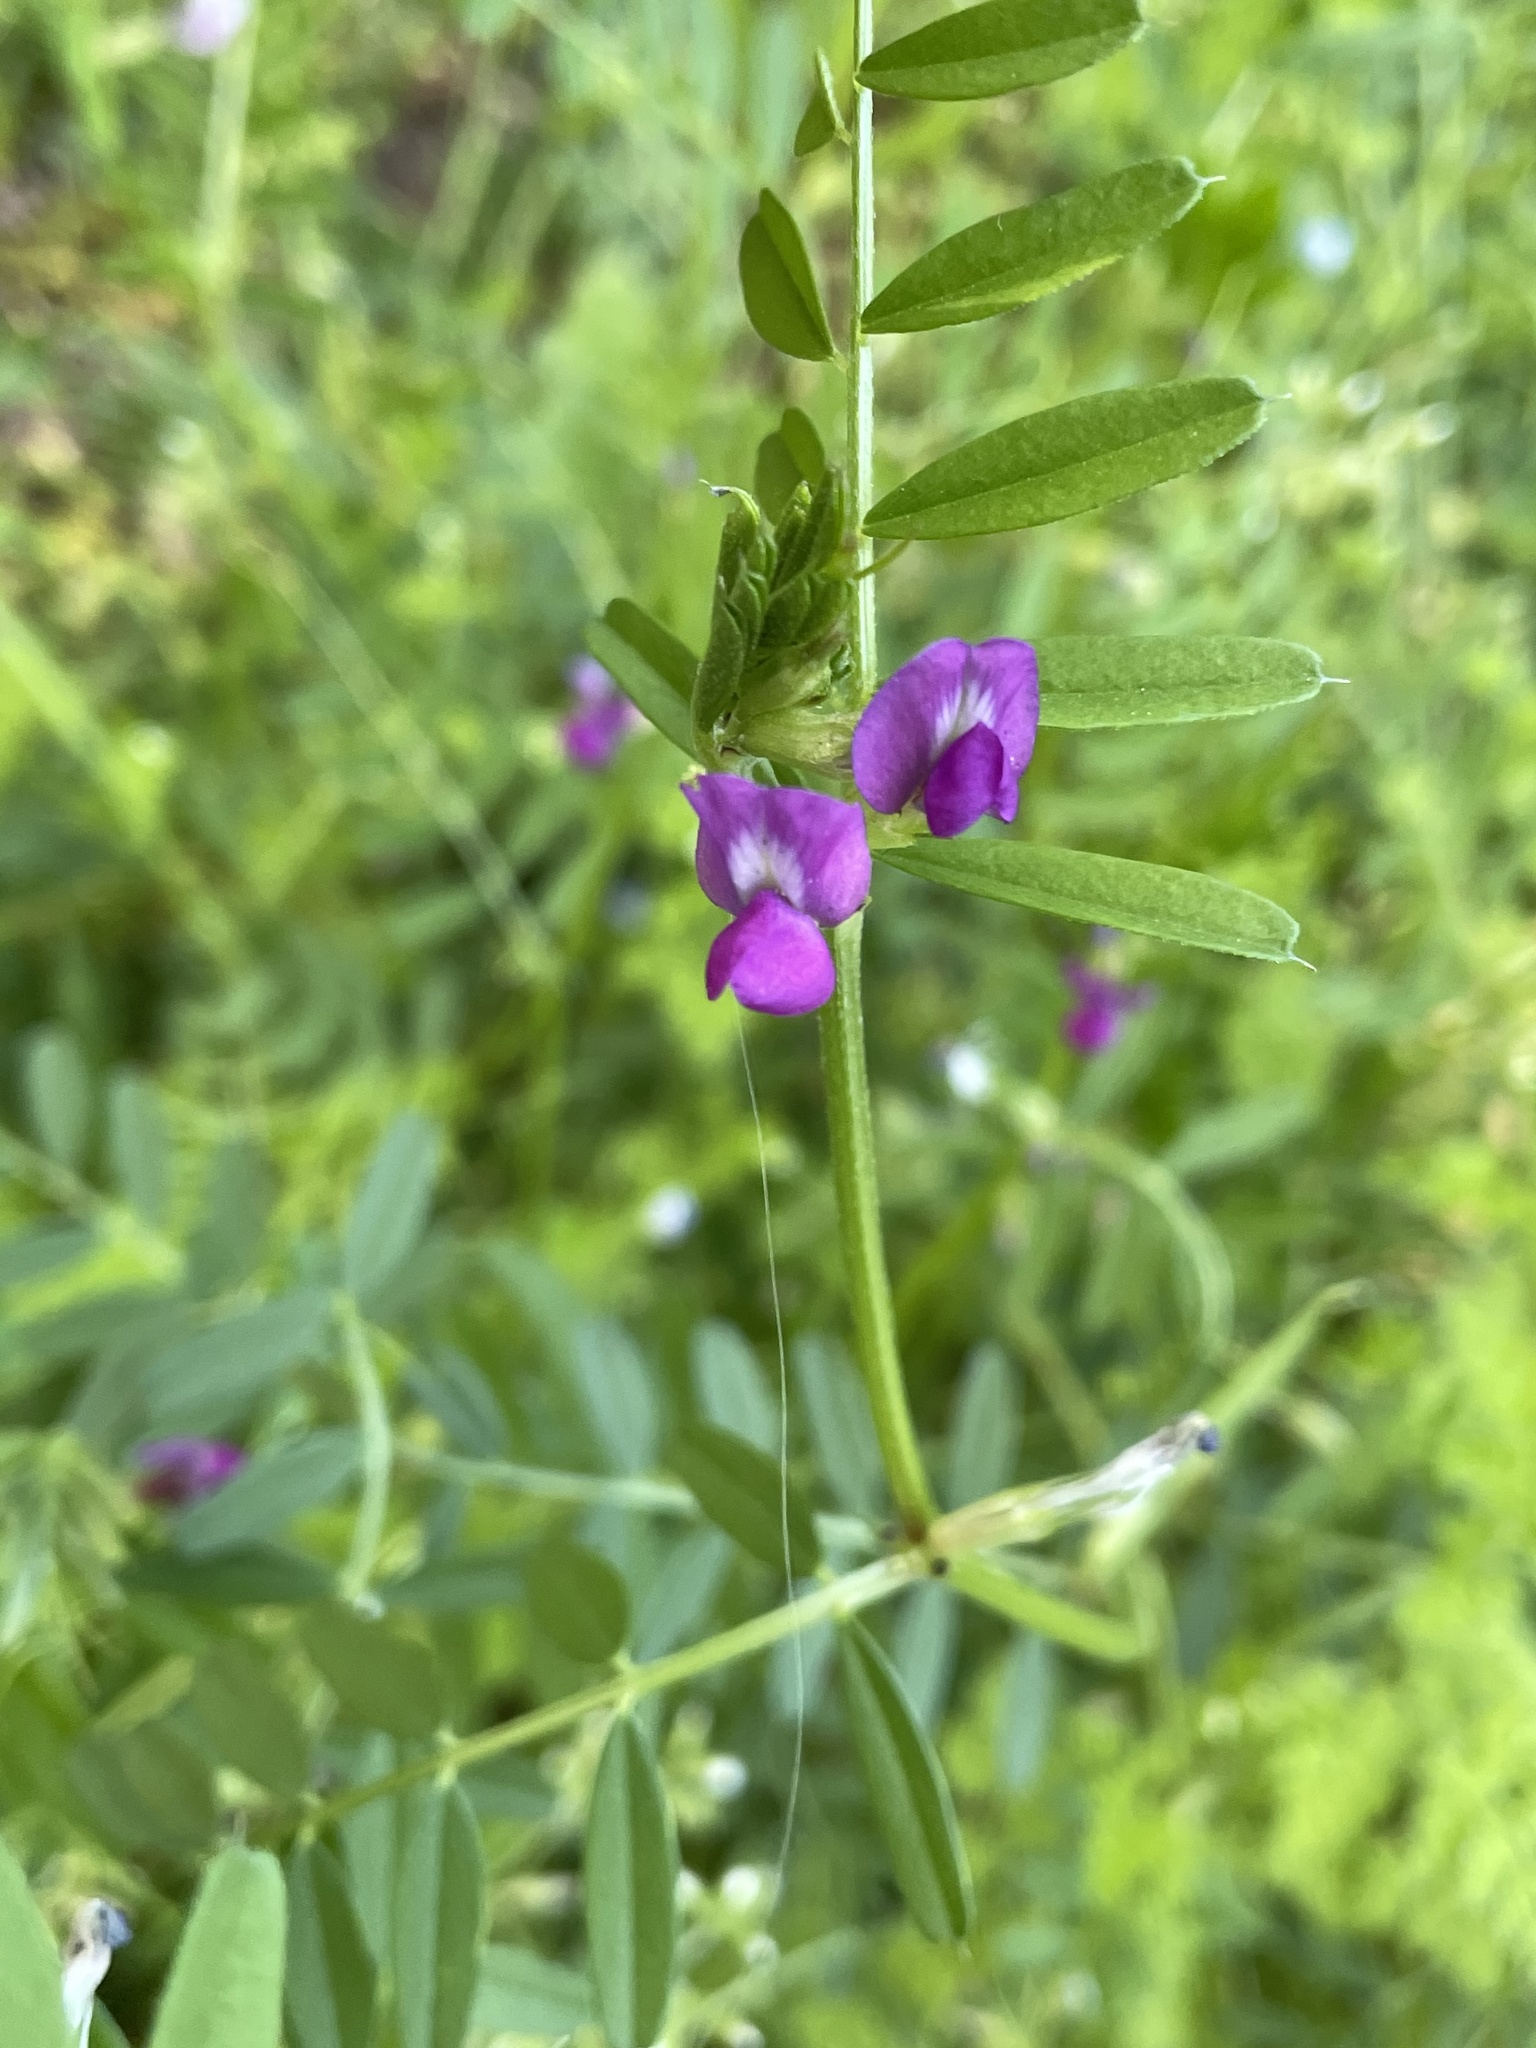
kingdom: Plantae
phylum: Tracheophyta
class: Magnoliopsida
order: Fabales
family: Fabaceae
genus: Vicia
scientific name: Vicia sativa
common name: Garden vetch
